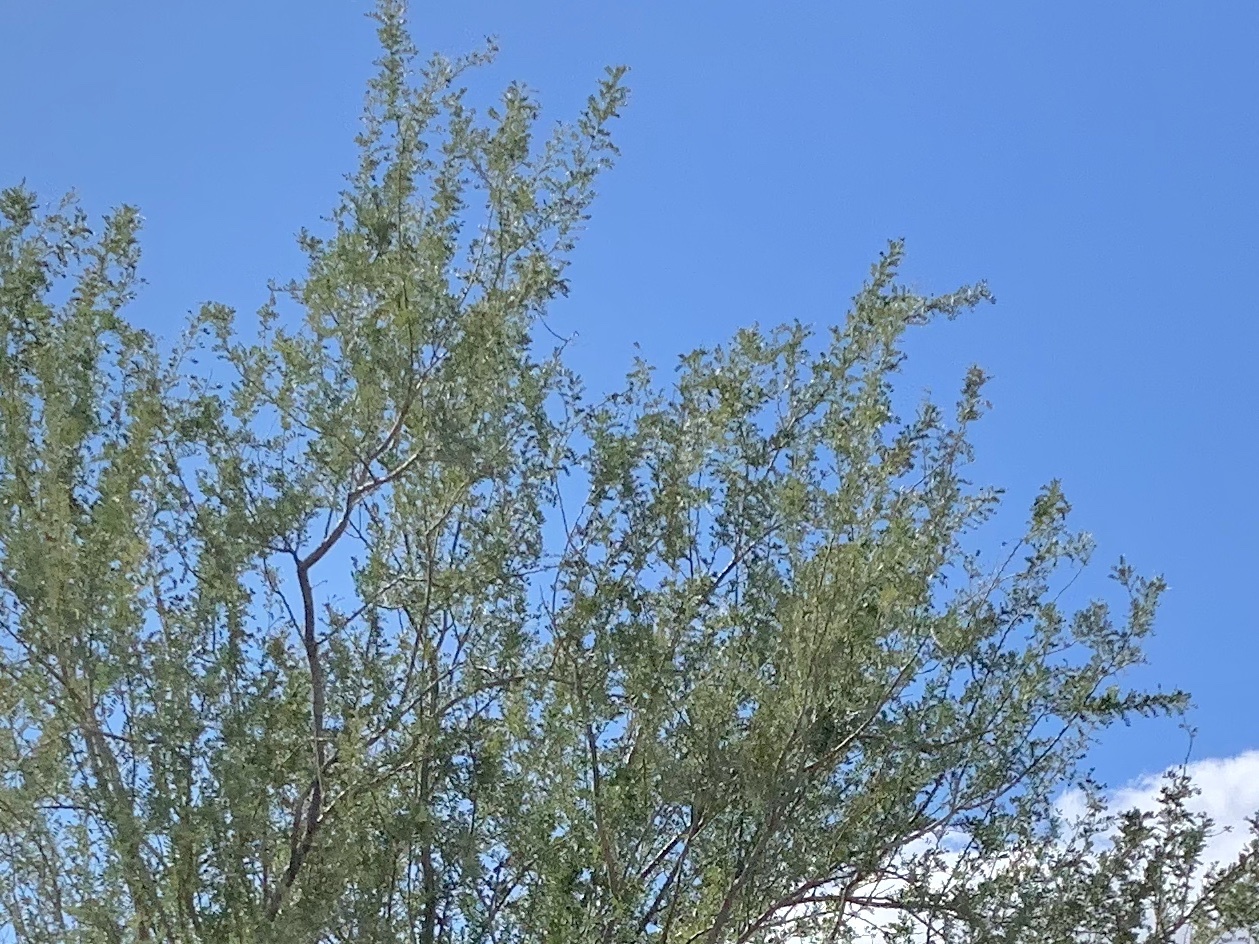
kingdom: Plantae
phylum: Tracheophyta
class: Magnoliopsida
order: Fabales
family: Fabaceae
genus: Olneya
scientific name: Olneya tesota
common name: Desert ironwood
